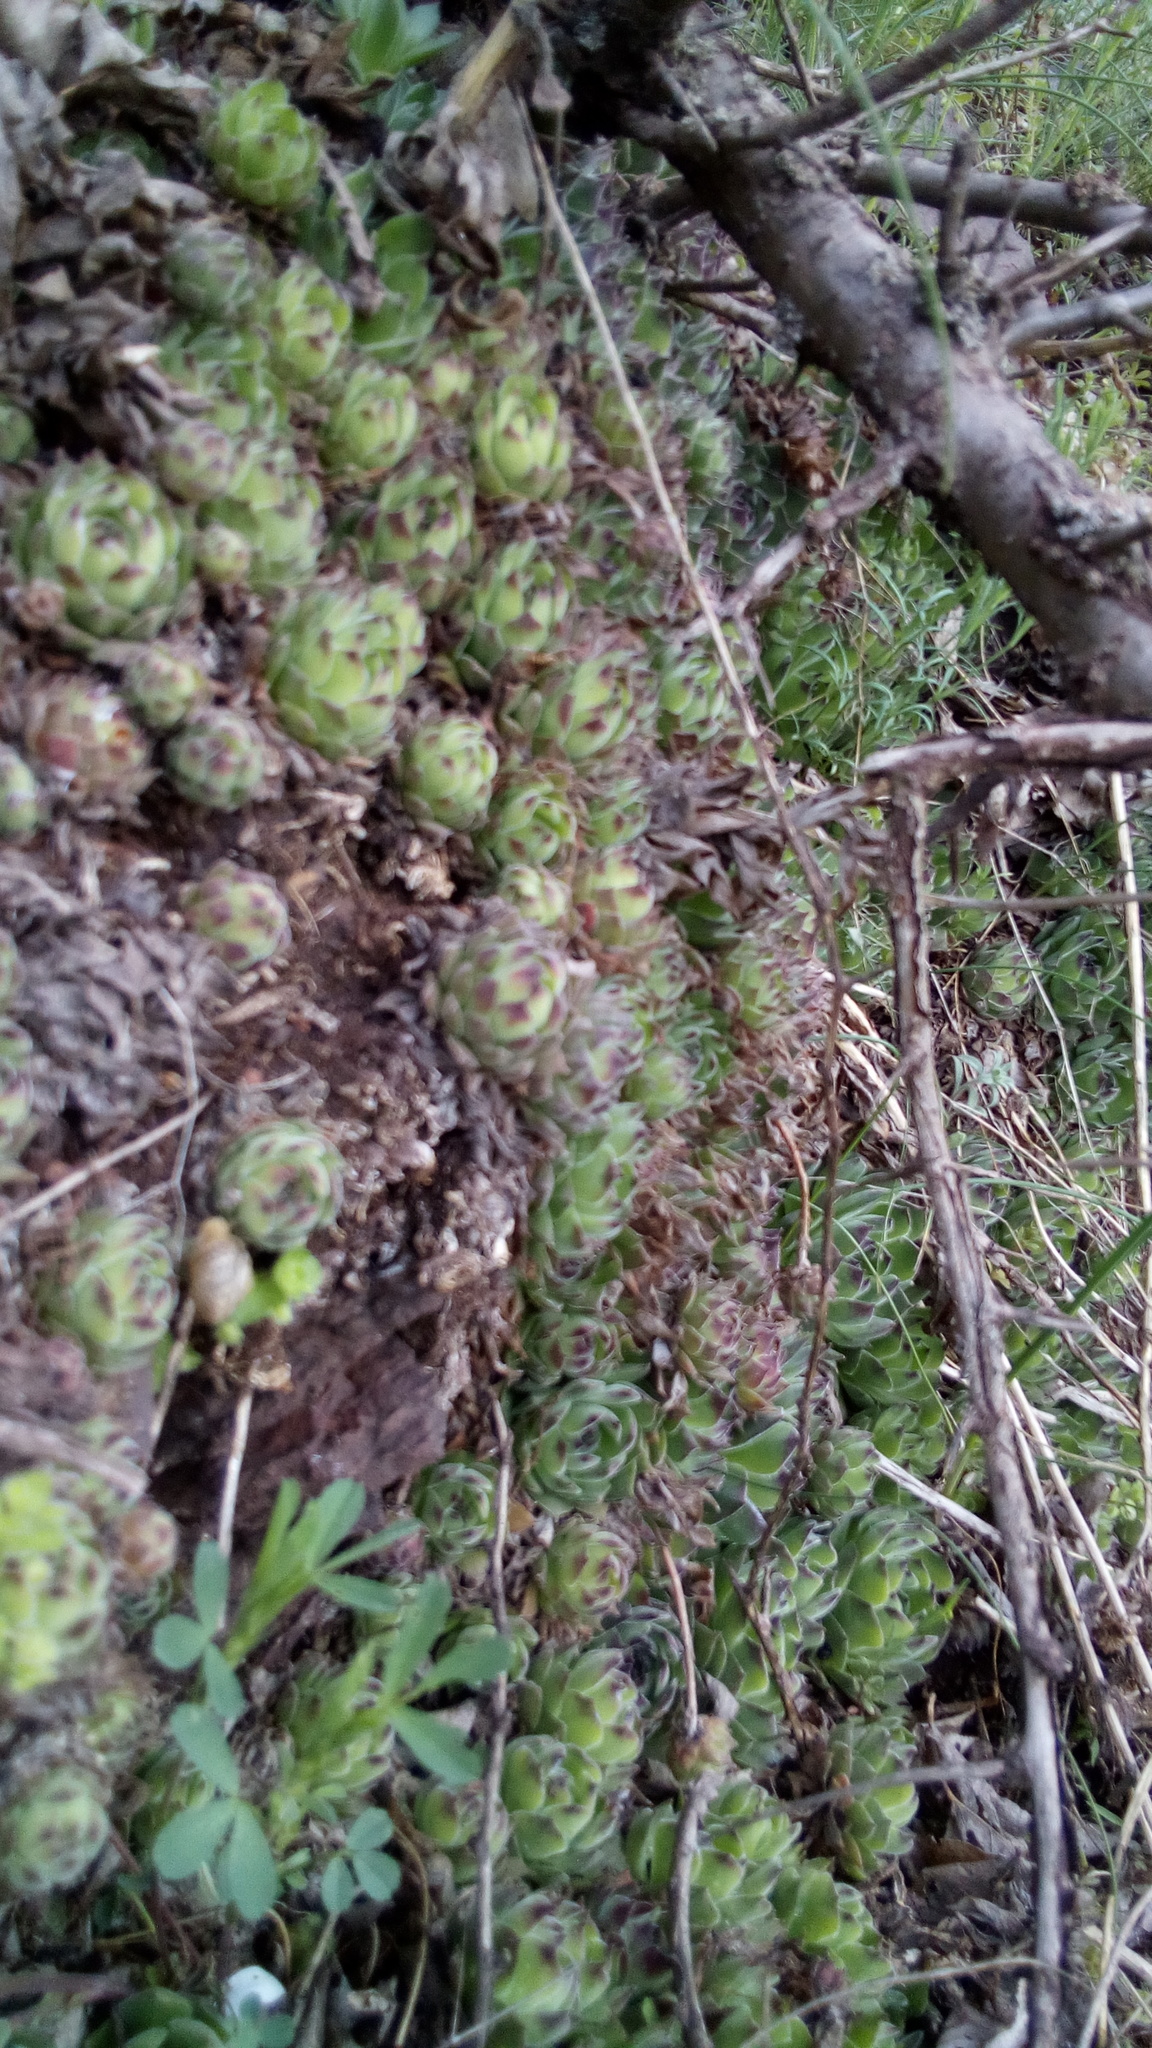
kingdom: Plantae
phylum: Tracheophyta
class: Magnoliopsida
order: Saxifragales
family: Crassulaceae
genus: Sempervivum
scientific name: Sempervivum ruthenicum
